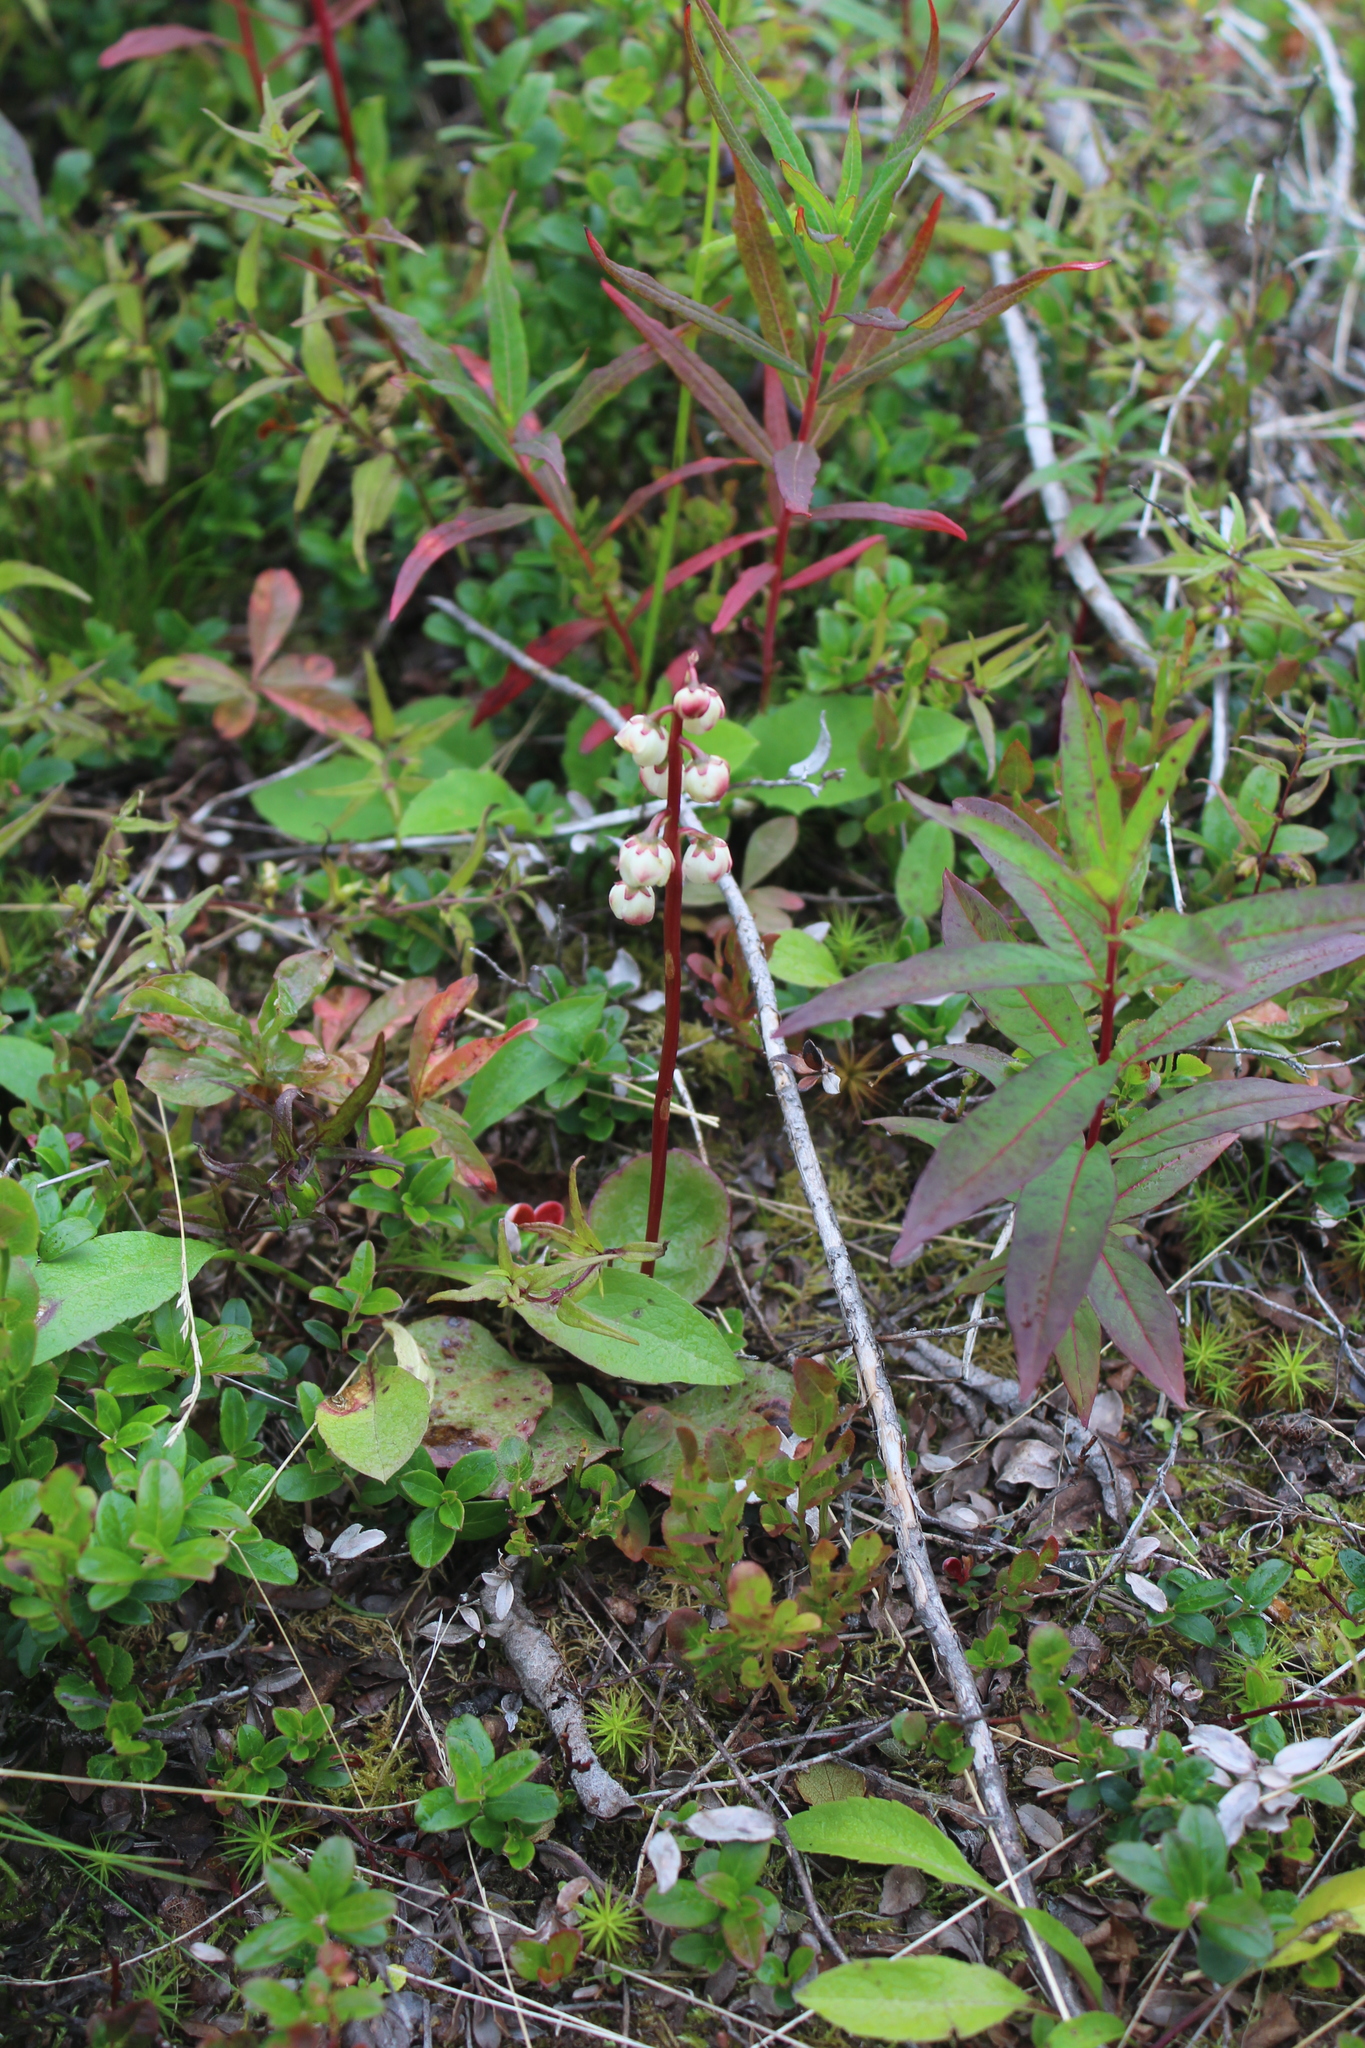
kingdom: Plantae
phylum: Tracheophyta
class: Magnoliopsida
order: Ericales
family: Ericaceae
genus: Pyrola
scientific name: Pyrola minor
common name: Common wintergreen
